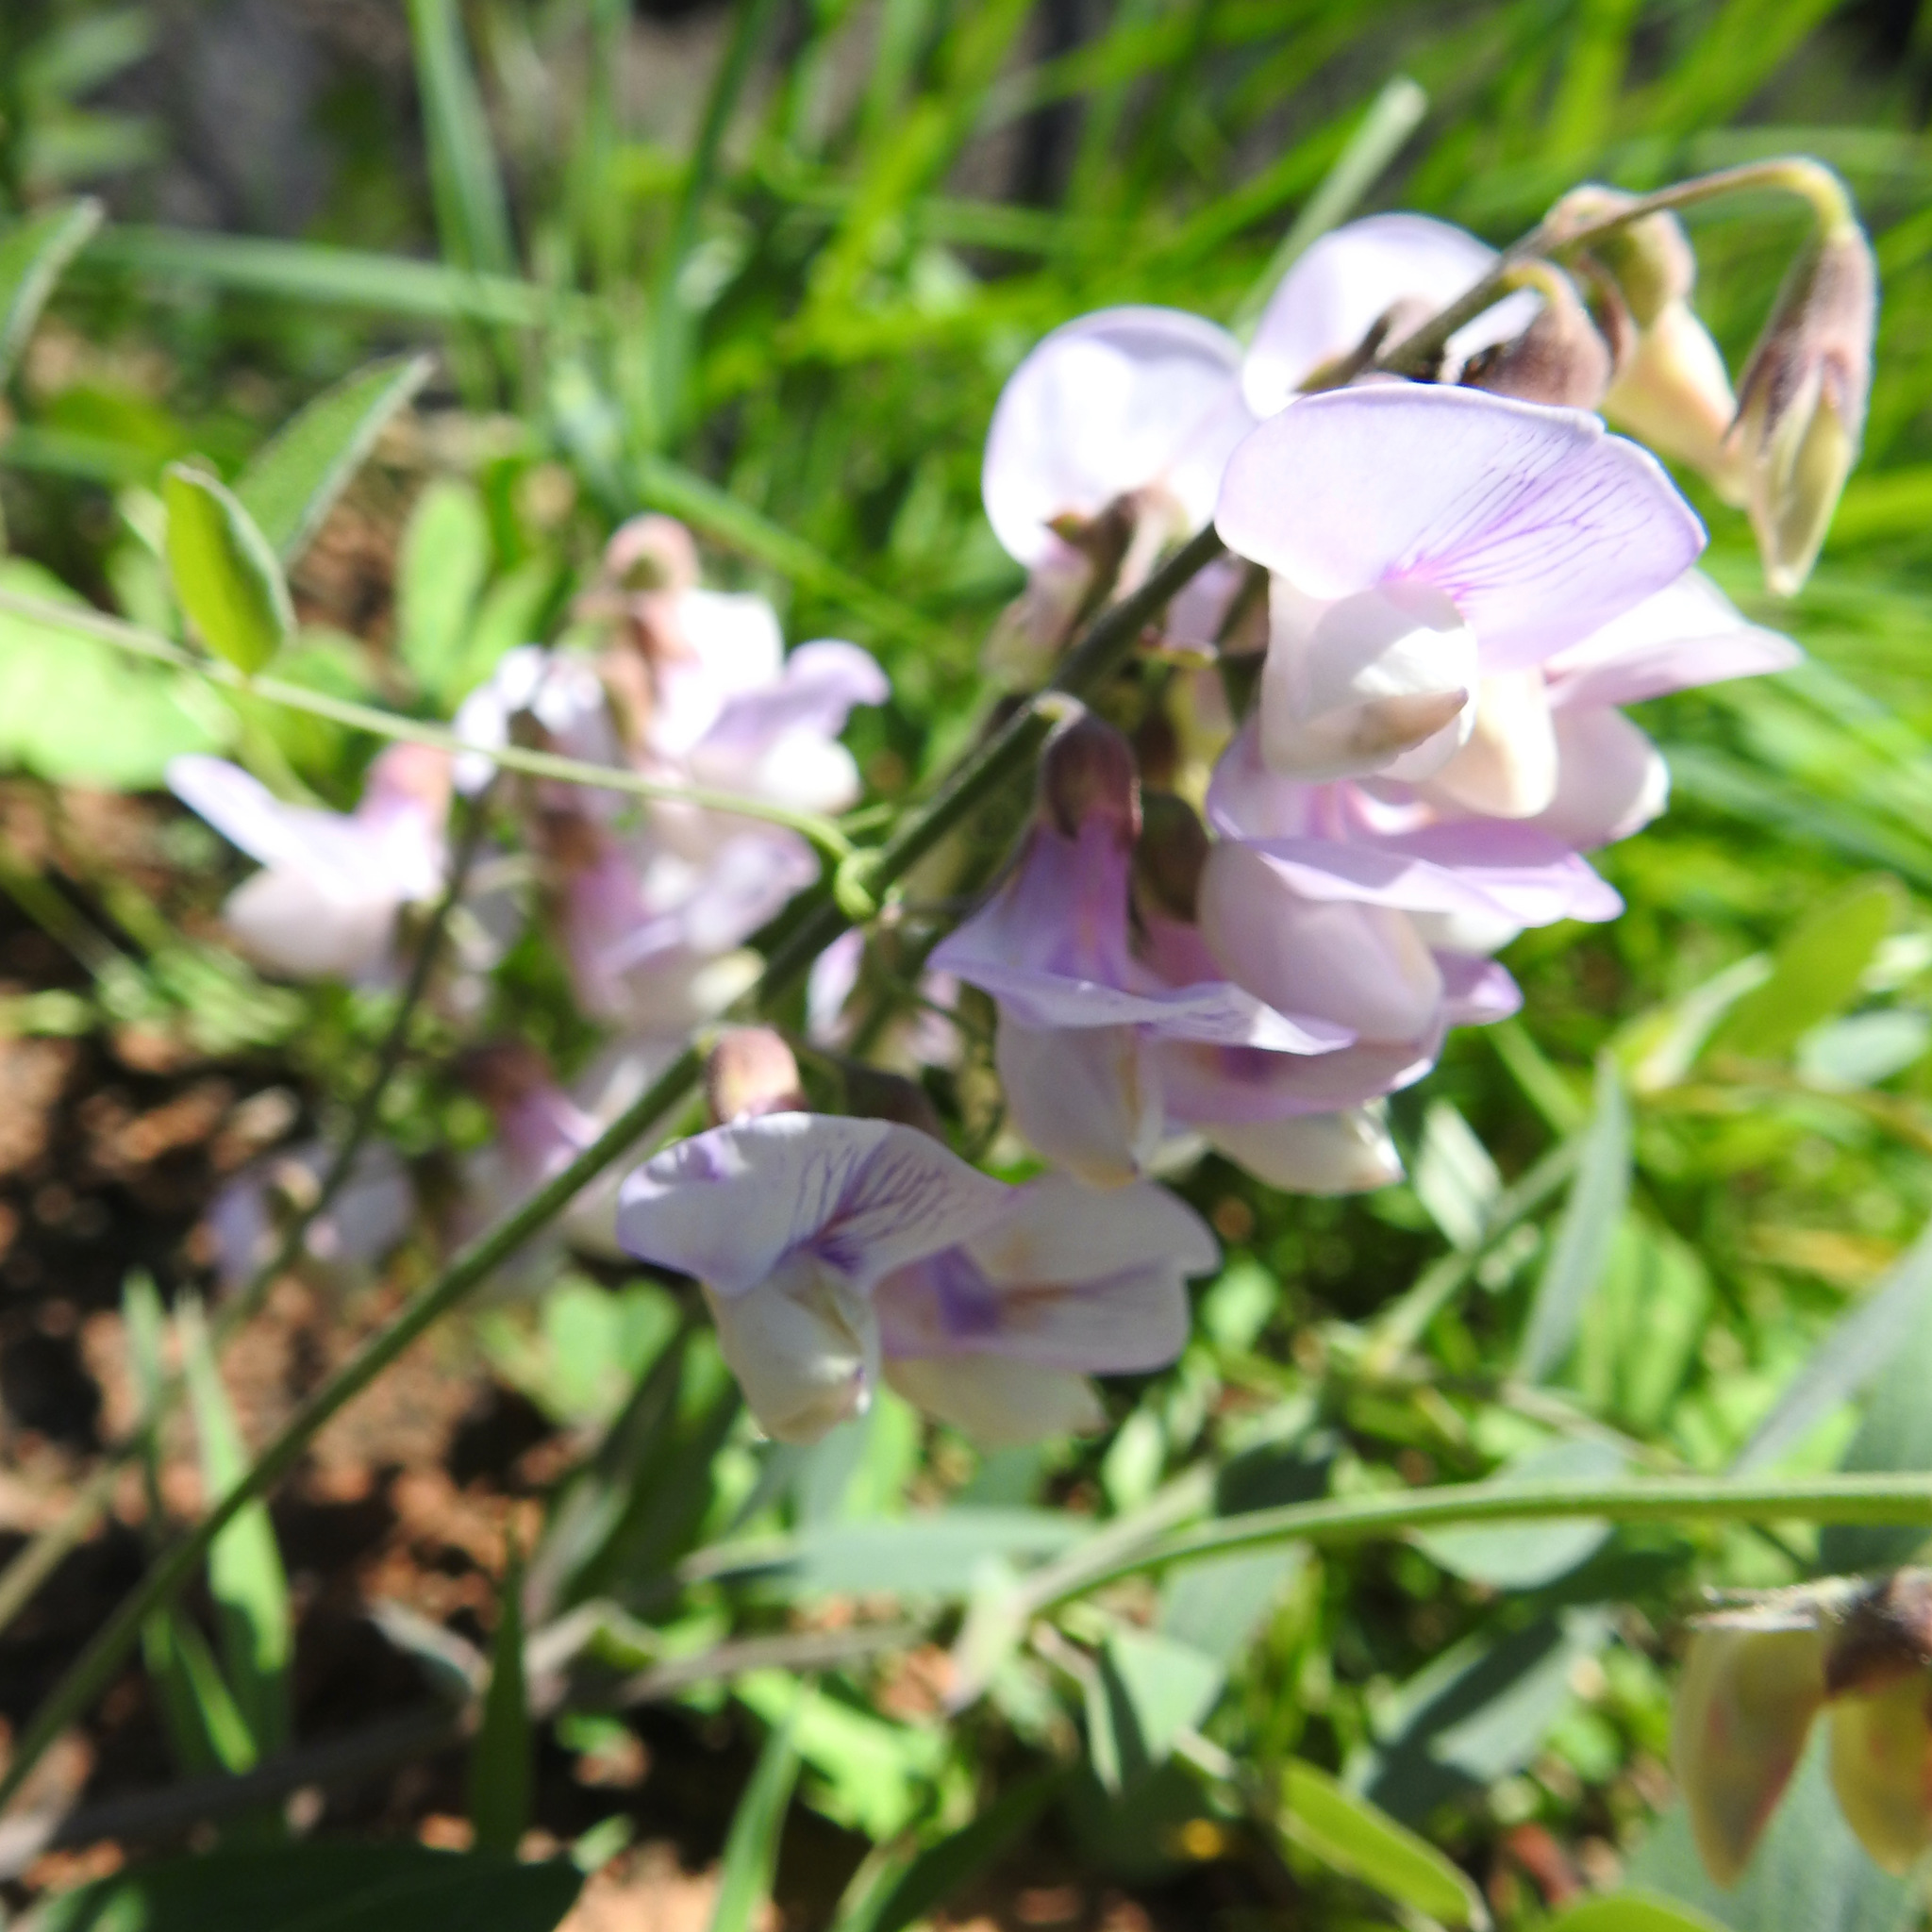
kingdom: Plantae
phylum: Tracheophyta
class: Magnoliopsida
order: Fabales
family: Fabaceae
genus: Lathyrus
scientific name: Lathyrus vestitus
